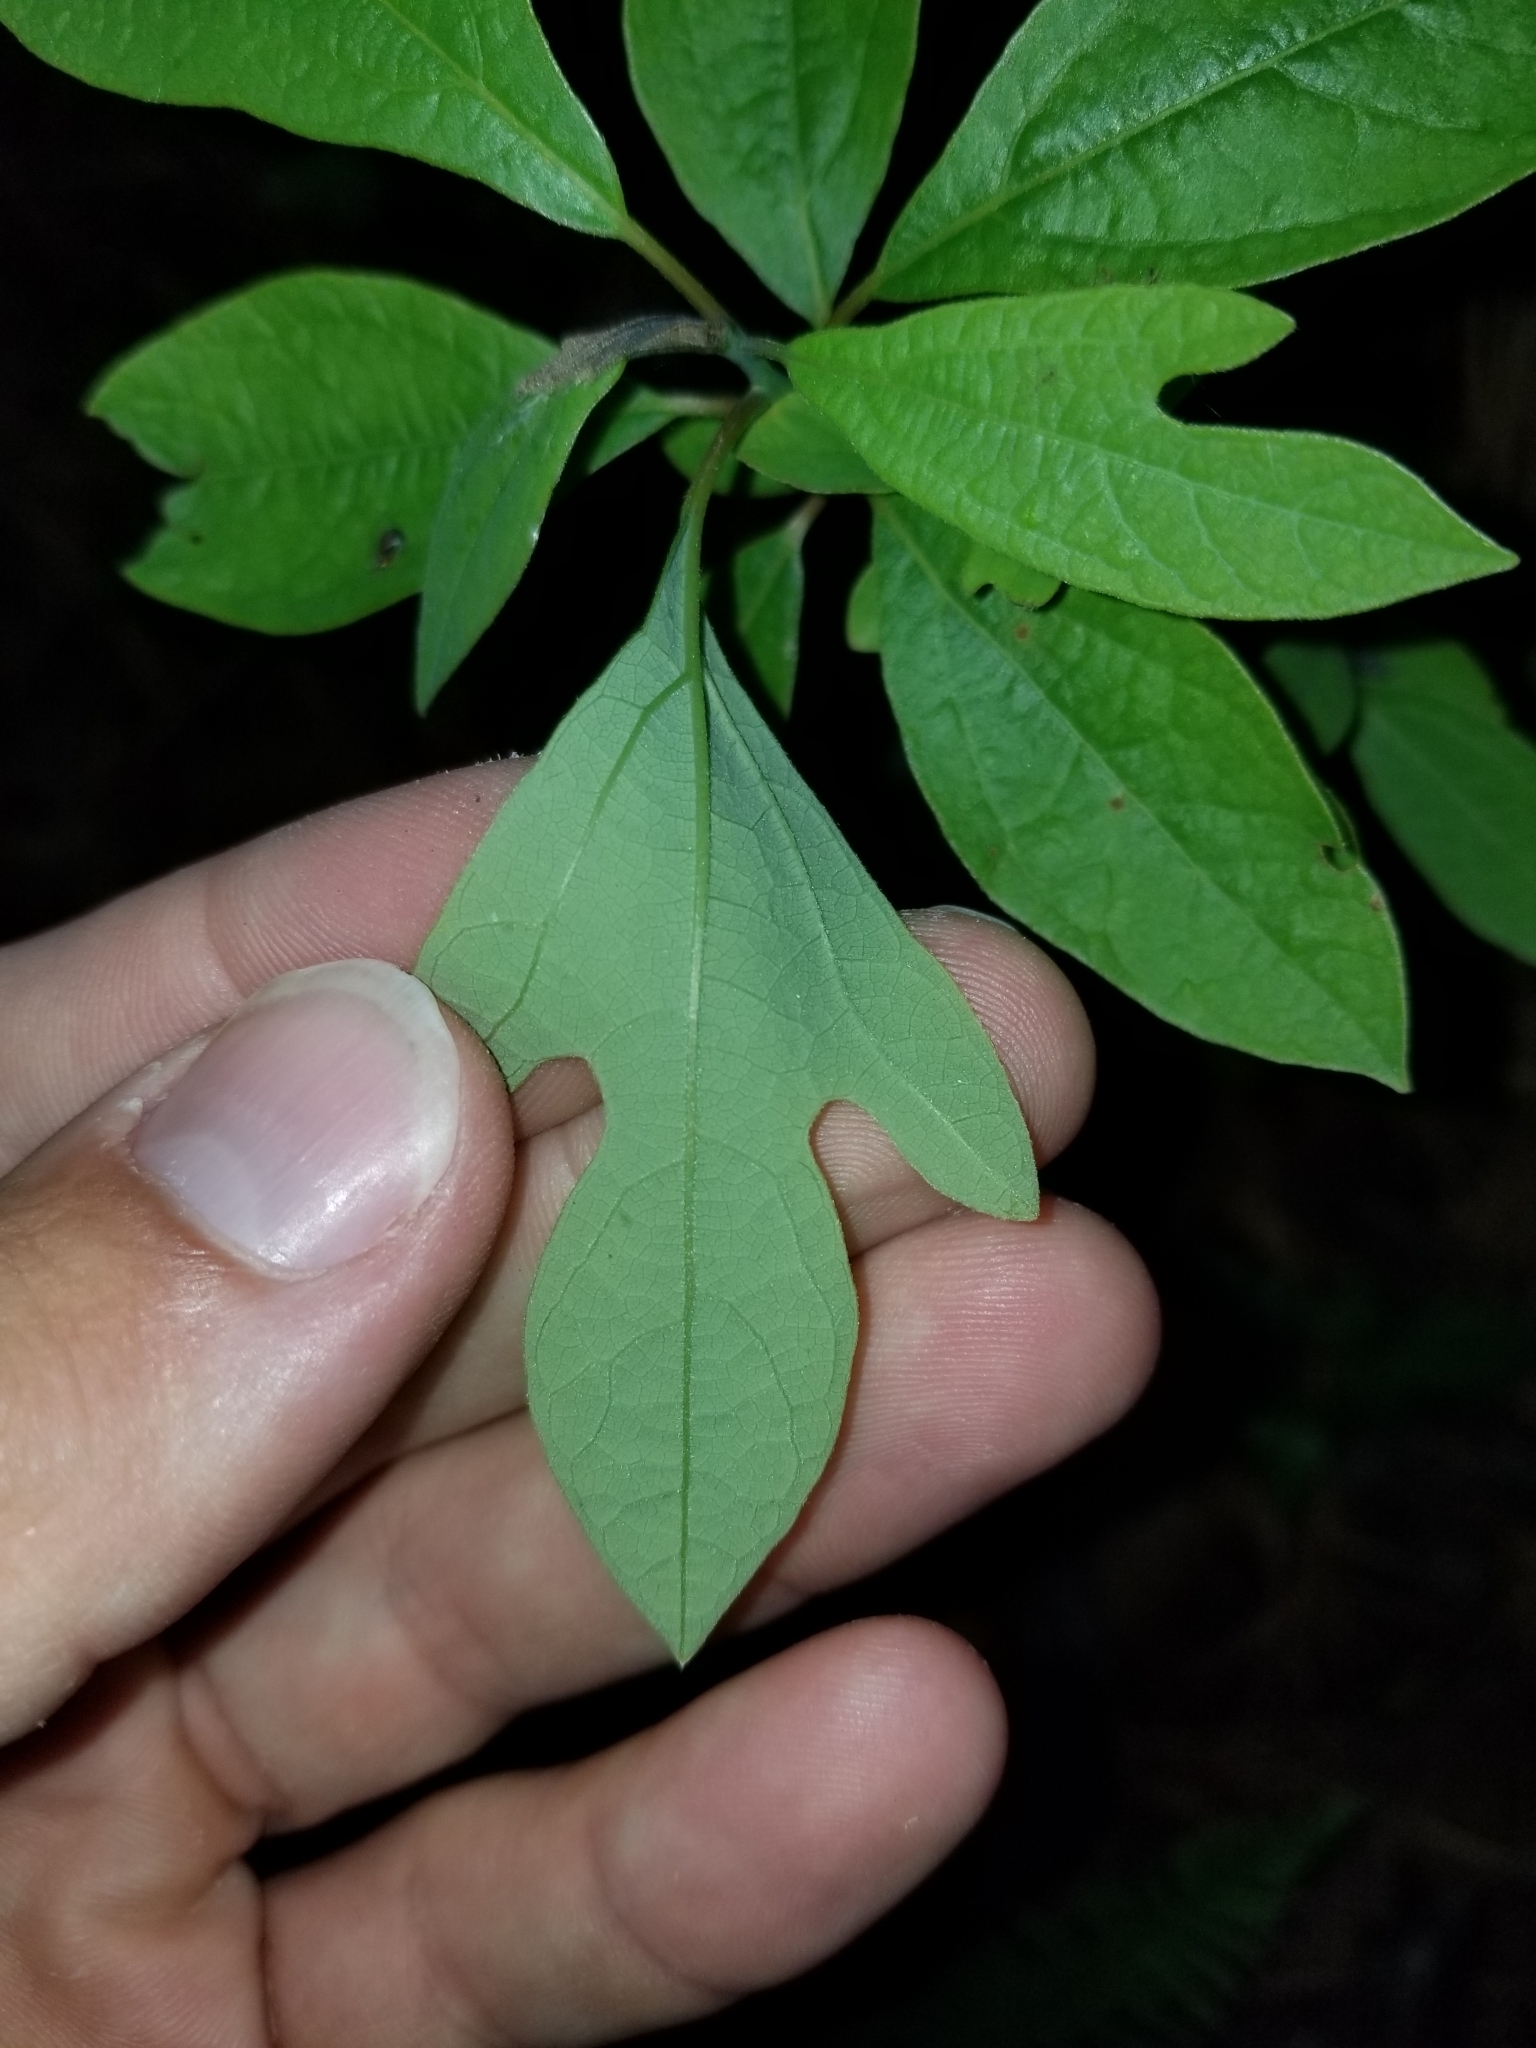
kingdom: Plantae
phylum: Tracheophyta
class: Magnoliopsida
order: Laurales
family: Lauraceae
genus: Sassafras
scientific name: Sassafras albidum
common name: Sassafras
